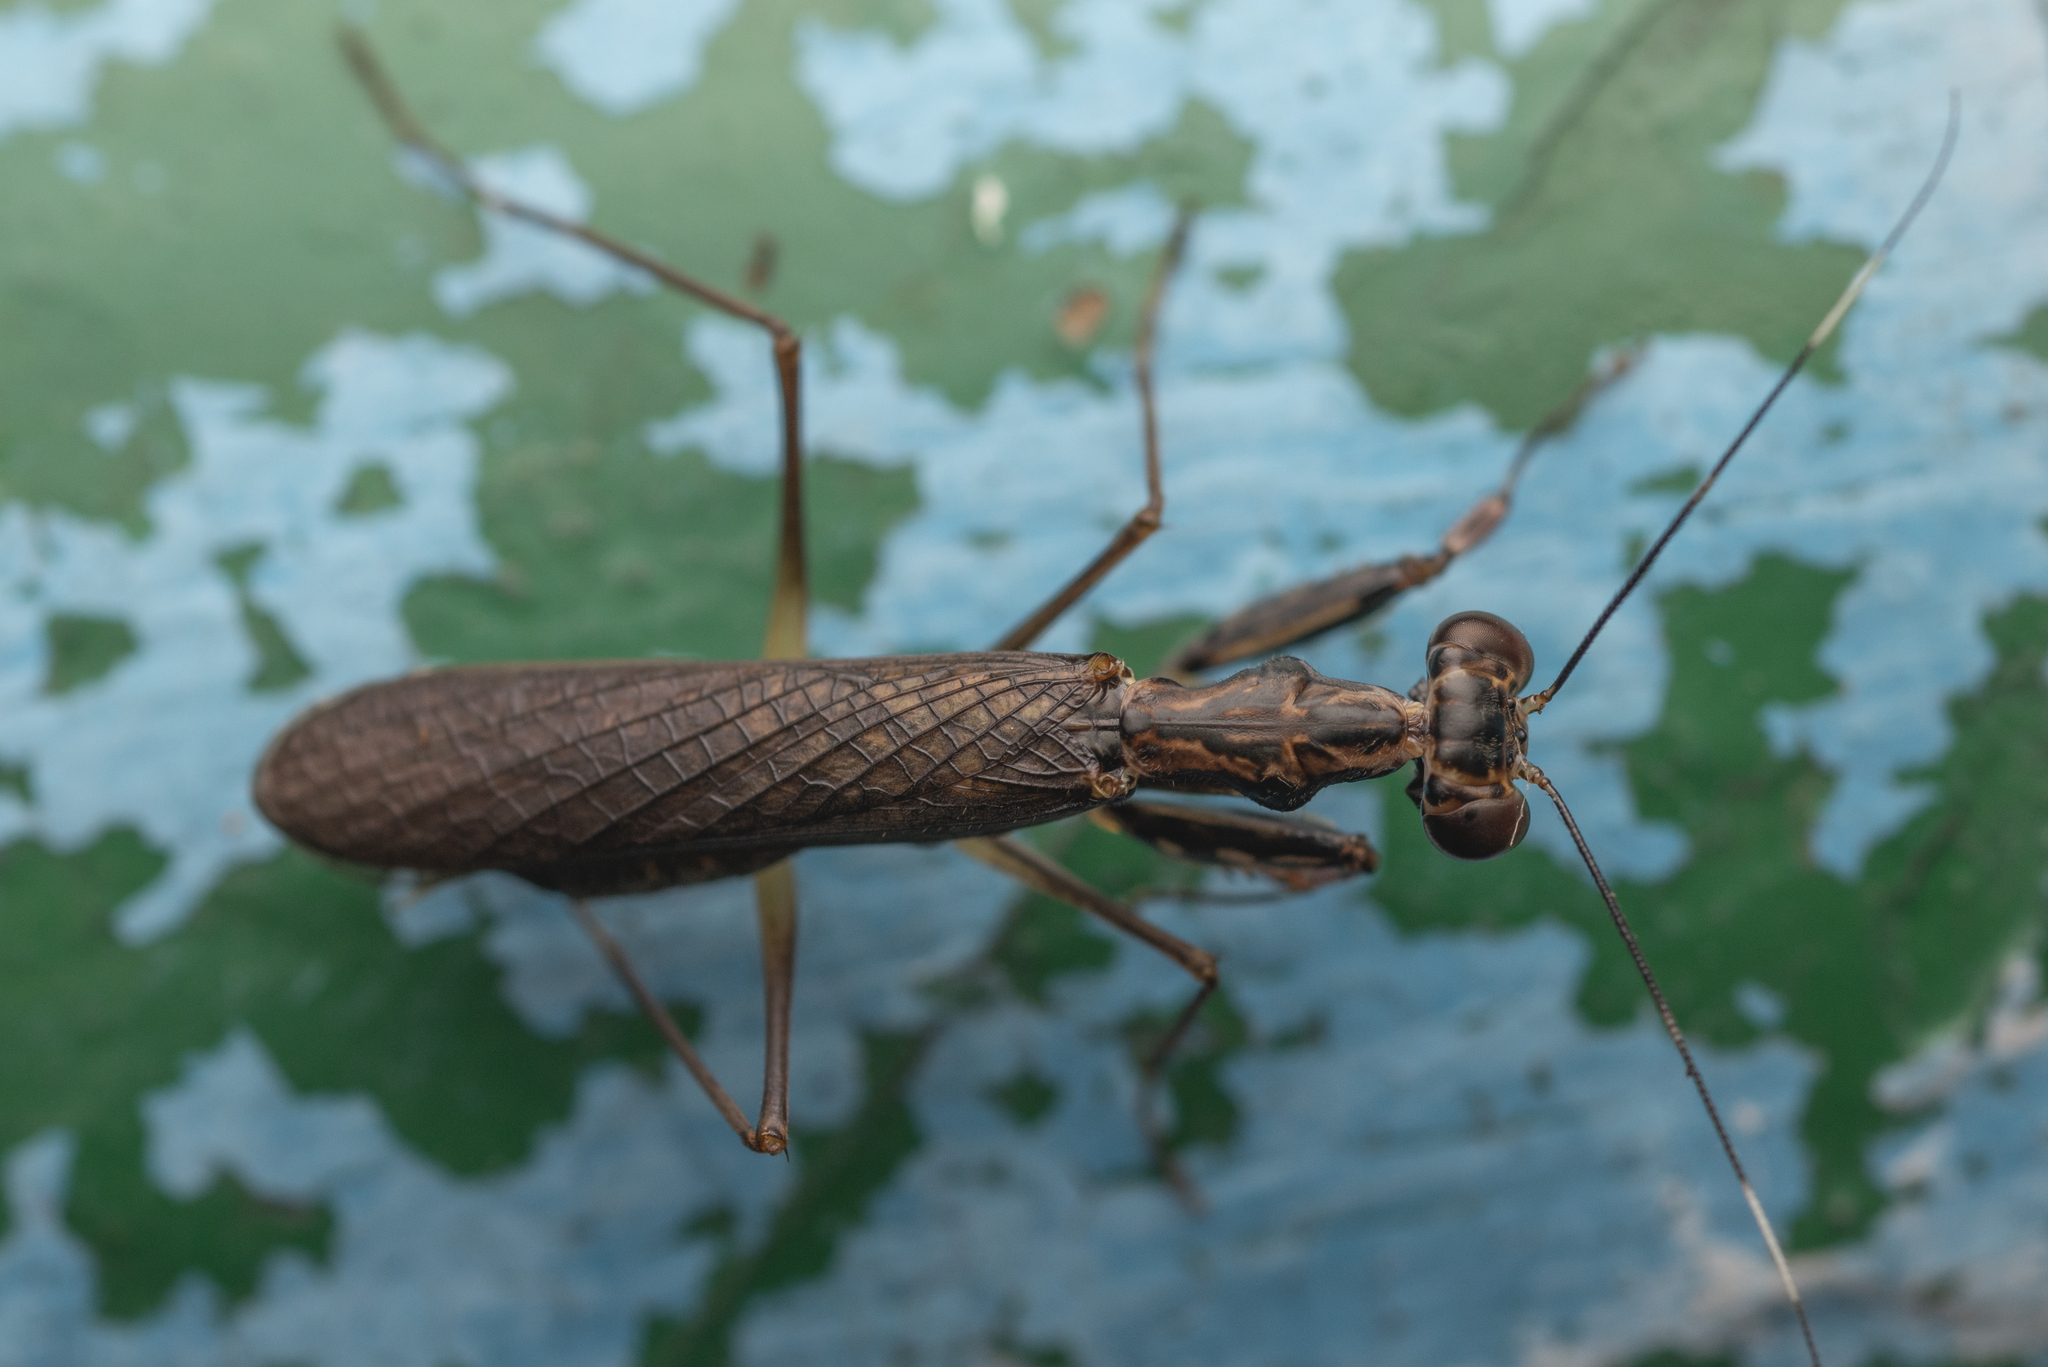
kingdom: Animalia
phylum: Arthropoda
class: Insecta
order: Mantodea
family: Gonypetidae
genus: Spilomantis
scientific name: Spilomantis occipitalis
